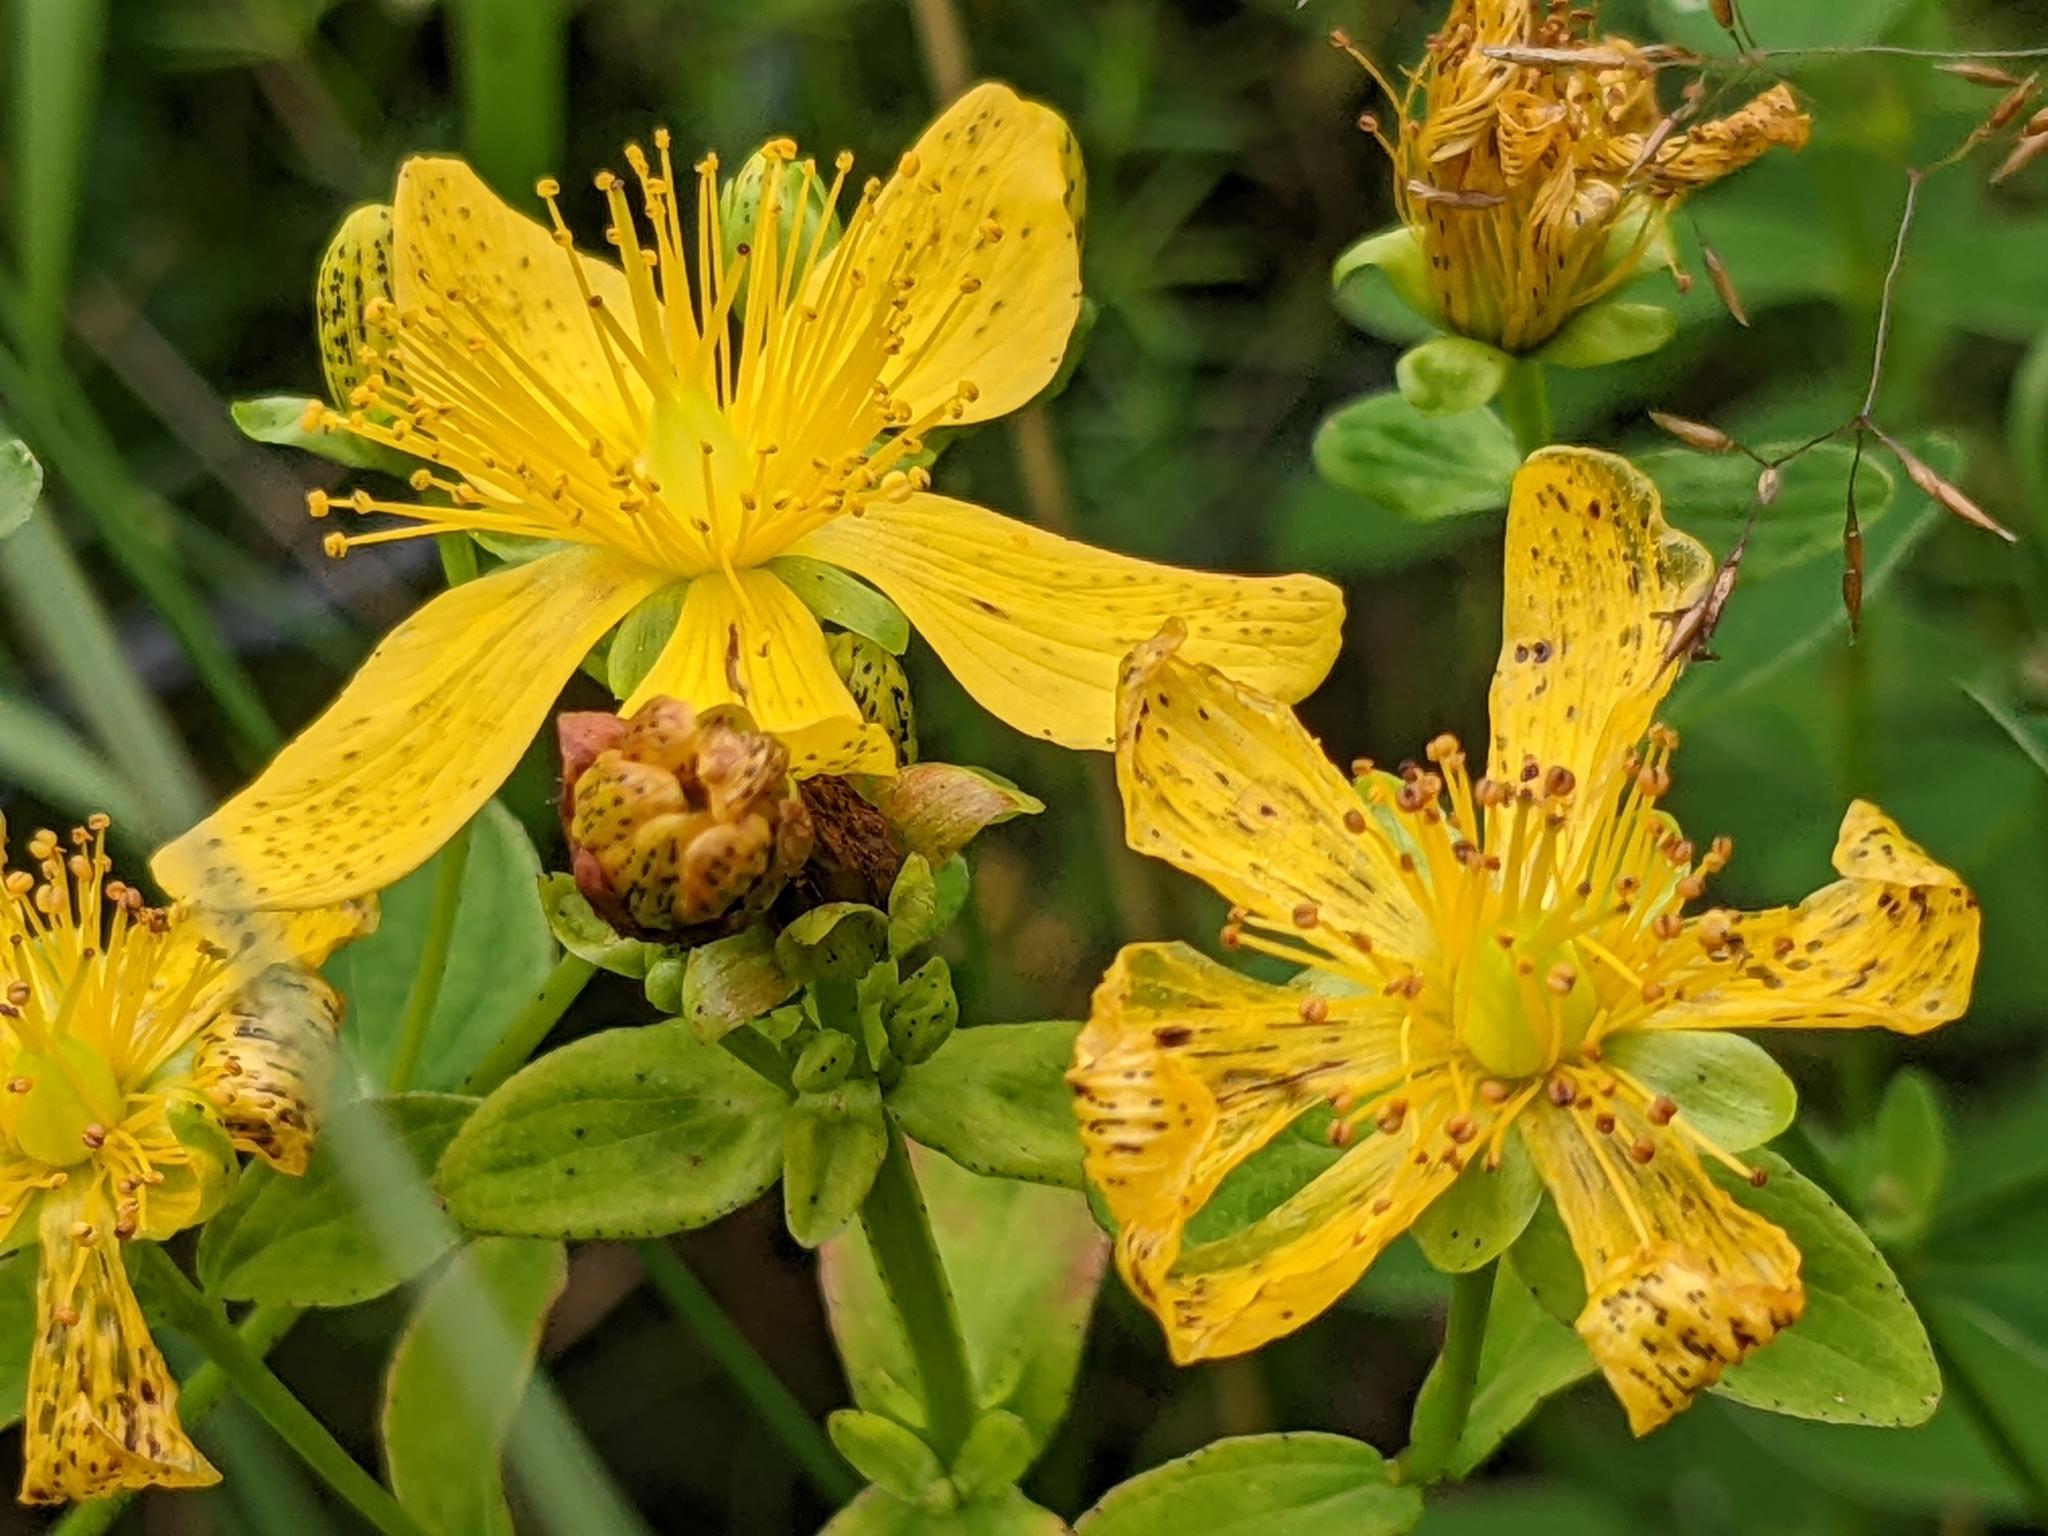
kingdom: Plantae
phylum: Tracheophyta
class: Magnoliopsida
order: Malpighiales
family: Hypericaceae
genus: Hypericum
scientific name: Hypericum maculatum
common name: Imperforate st. john's-wort
